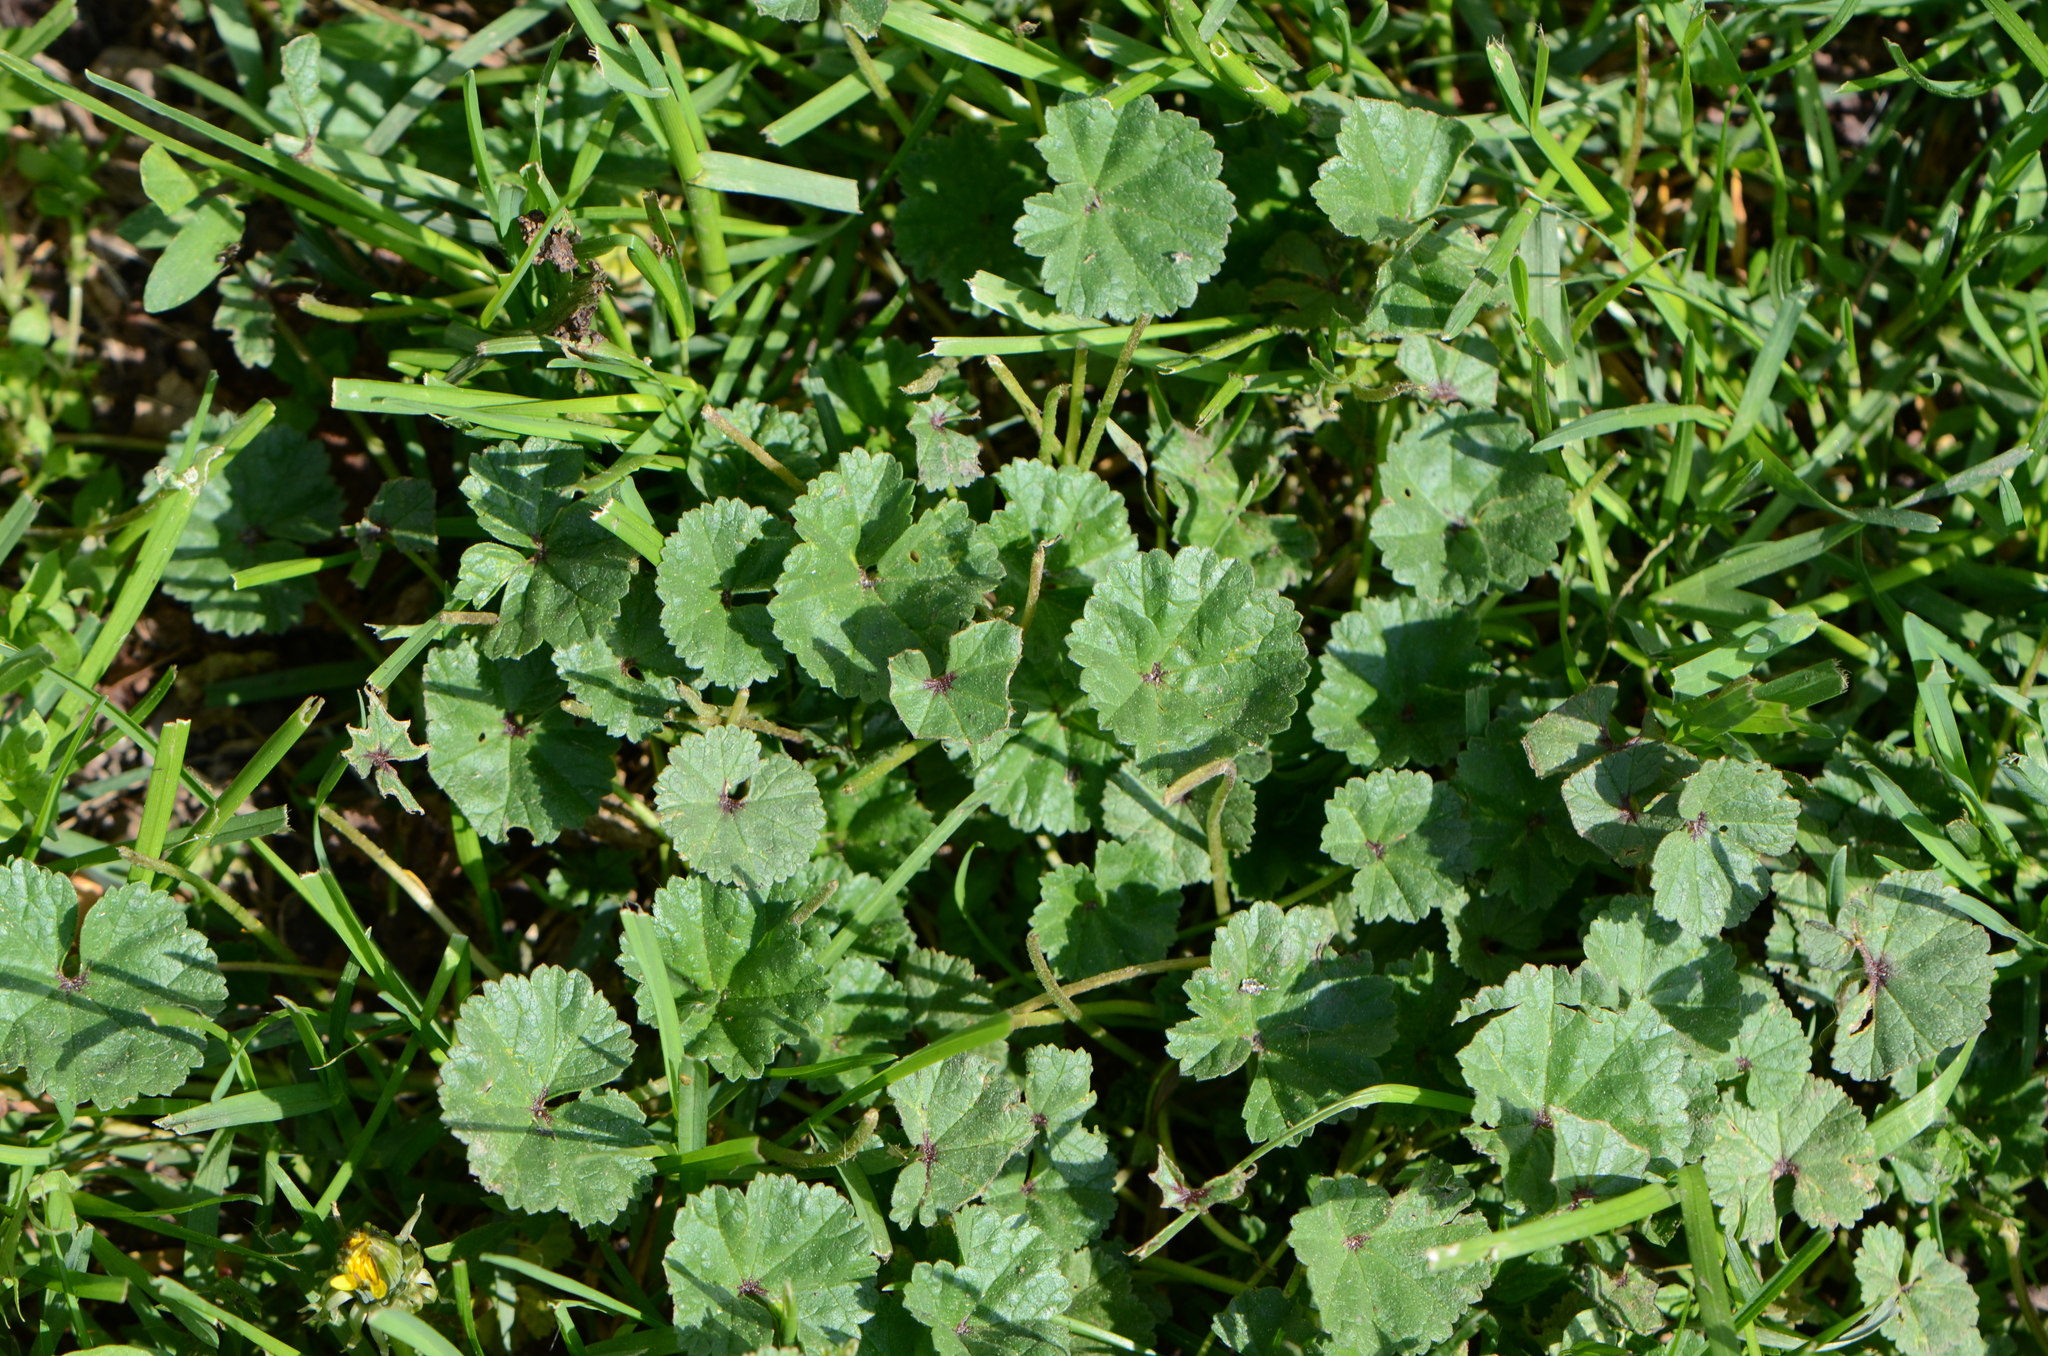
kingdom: Plantae
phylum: Tracheophyta
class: Magnoliopsida
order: Malvales
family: Malvaceae
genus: Malva
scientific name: Malva neglecta
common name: Common mallow
